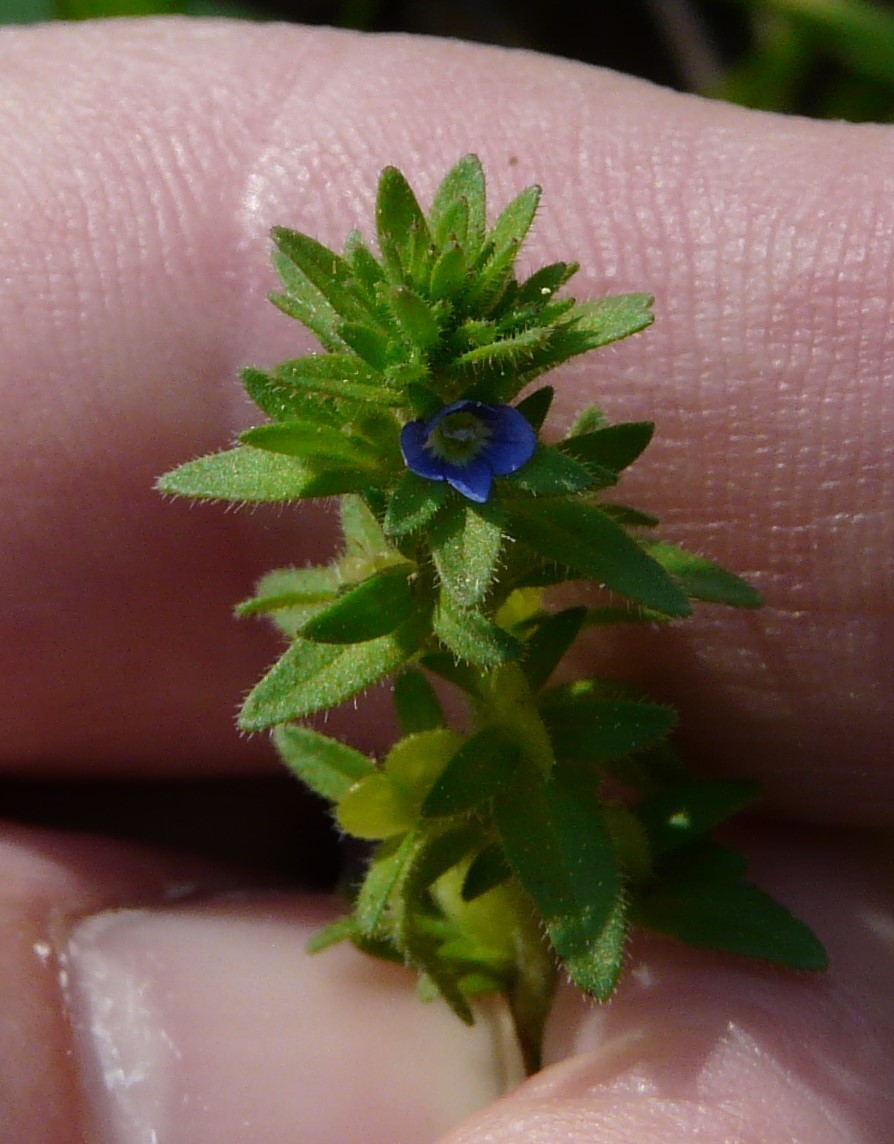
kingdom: Plantae
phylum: Tracheophyta
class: Magnoliopsida
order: Lamiales
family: Plantaginaceae
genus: Veronica
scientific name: Veronica arvensis
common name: Corn speedwell
